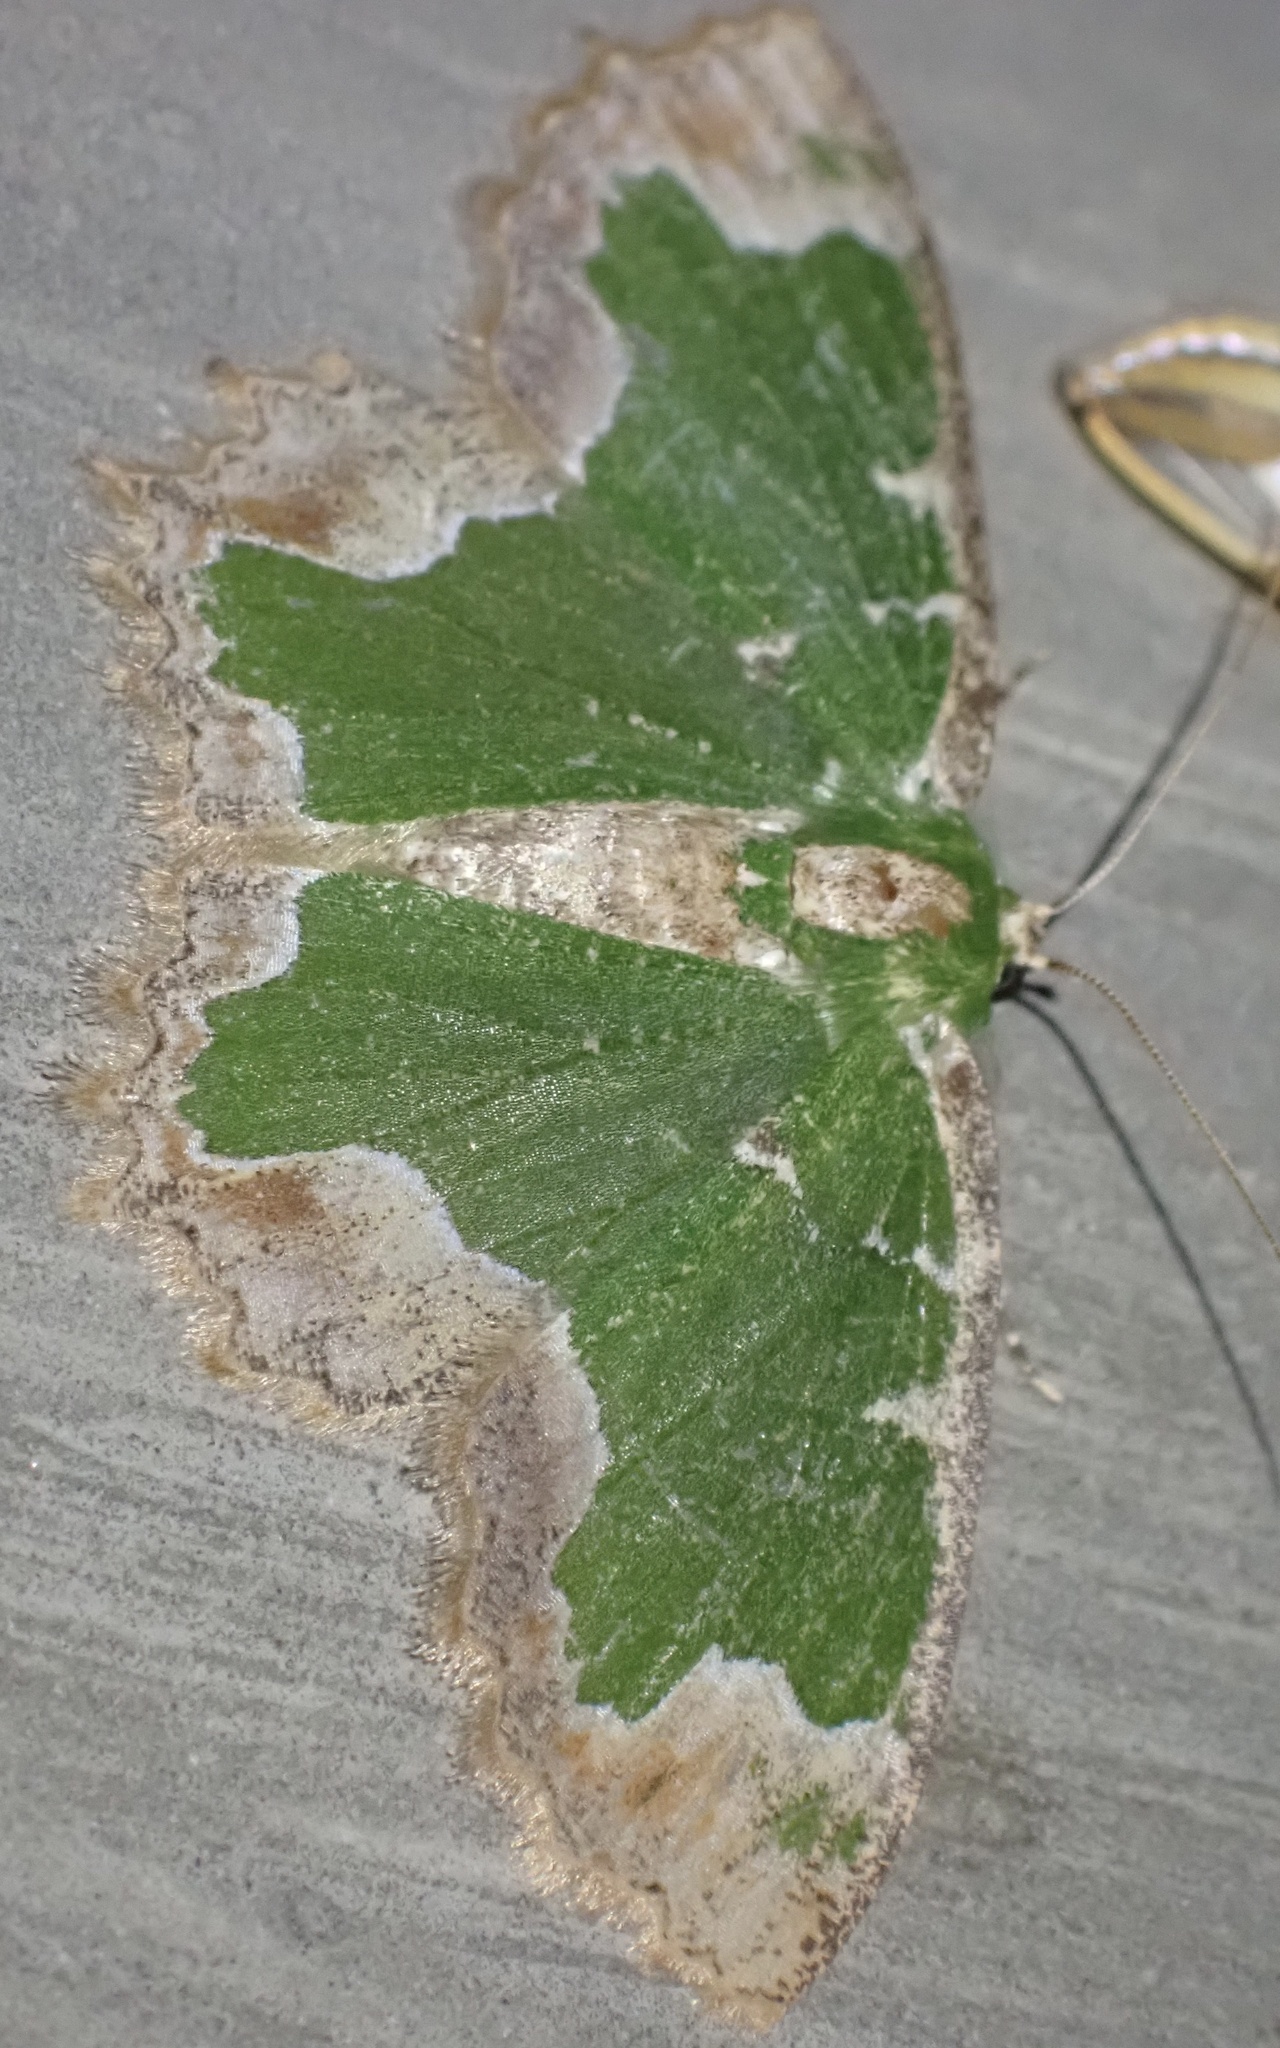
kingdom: Animalia
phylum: Arthropoda
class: Insecta
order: Lepidoptera
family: Geometridae
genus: Eucyclodes
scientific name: Eucyclodes veniplaga
